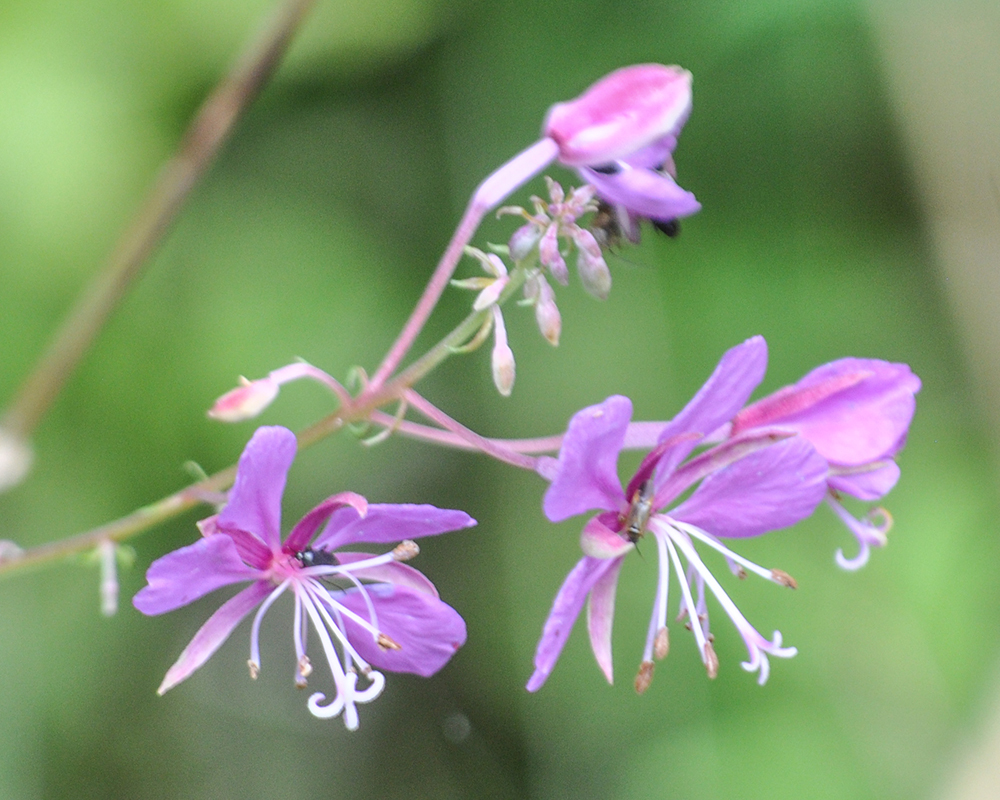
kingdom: Plantae
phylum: Tracheophyta
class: Magnoliopsida
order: Myrtales
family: Onagraceae
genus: Chamaenerion
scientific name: Chamaenerion dodonaei
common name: Rosemary-leaved willowherb
